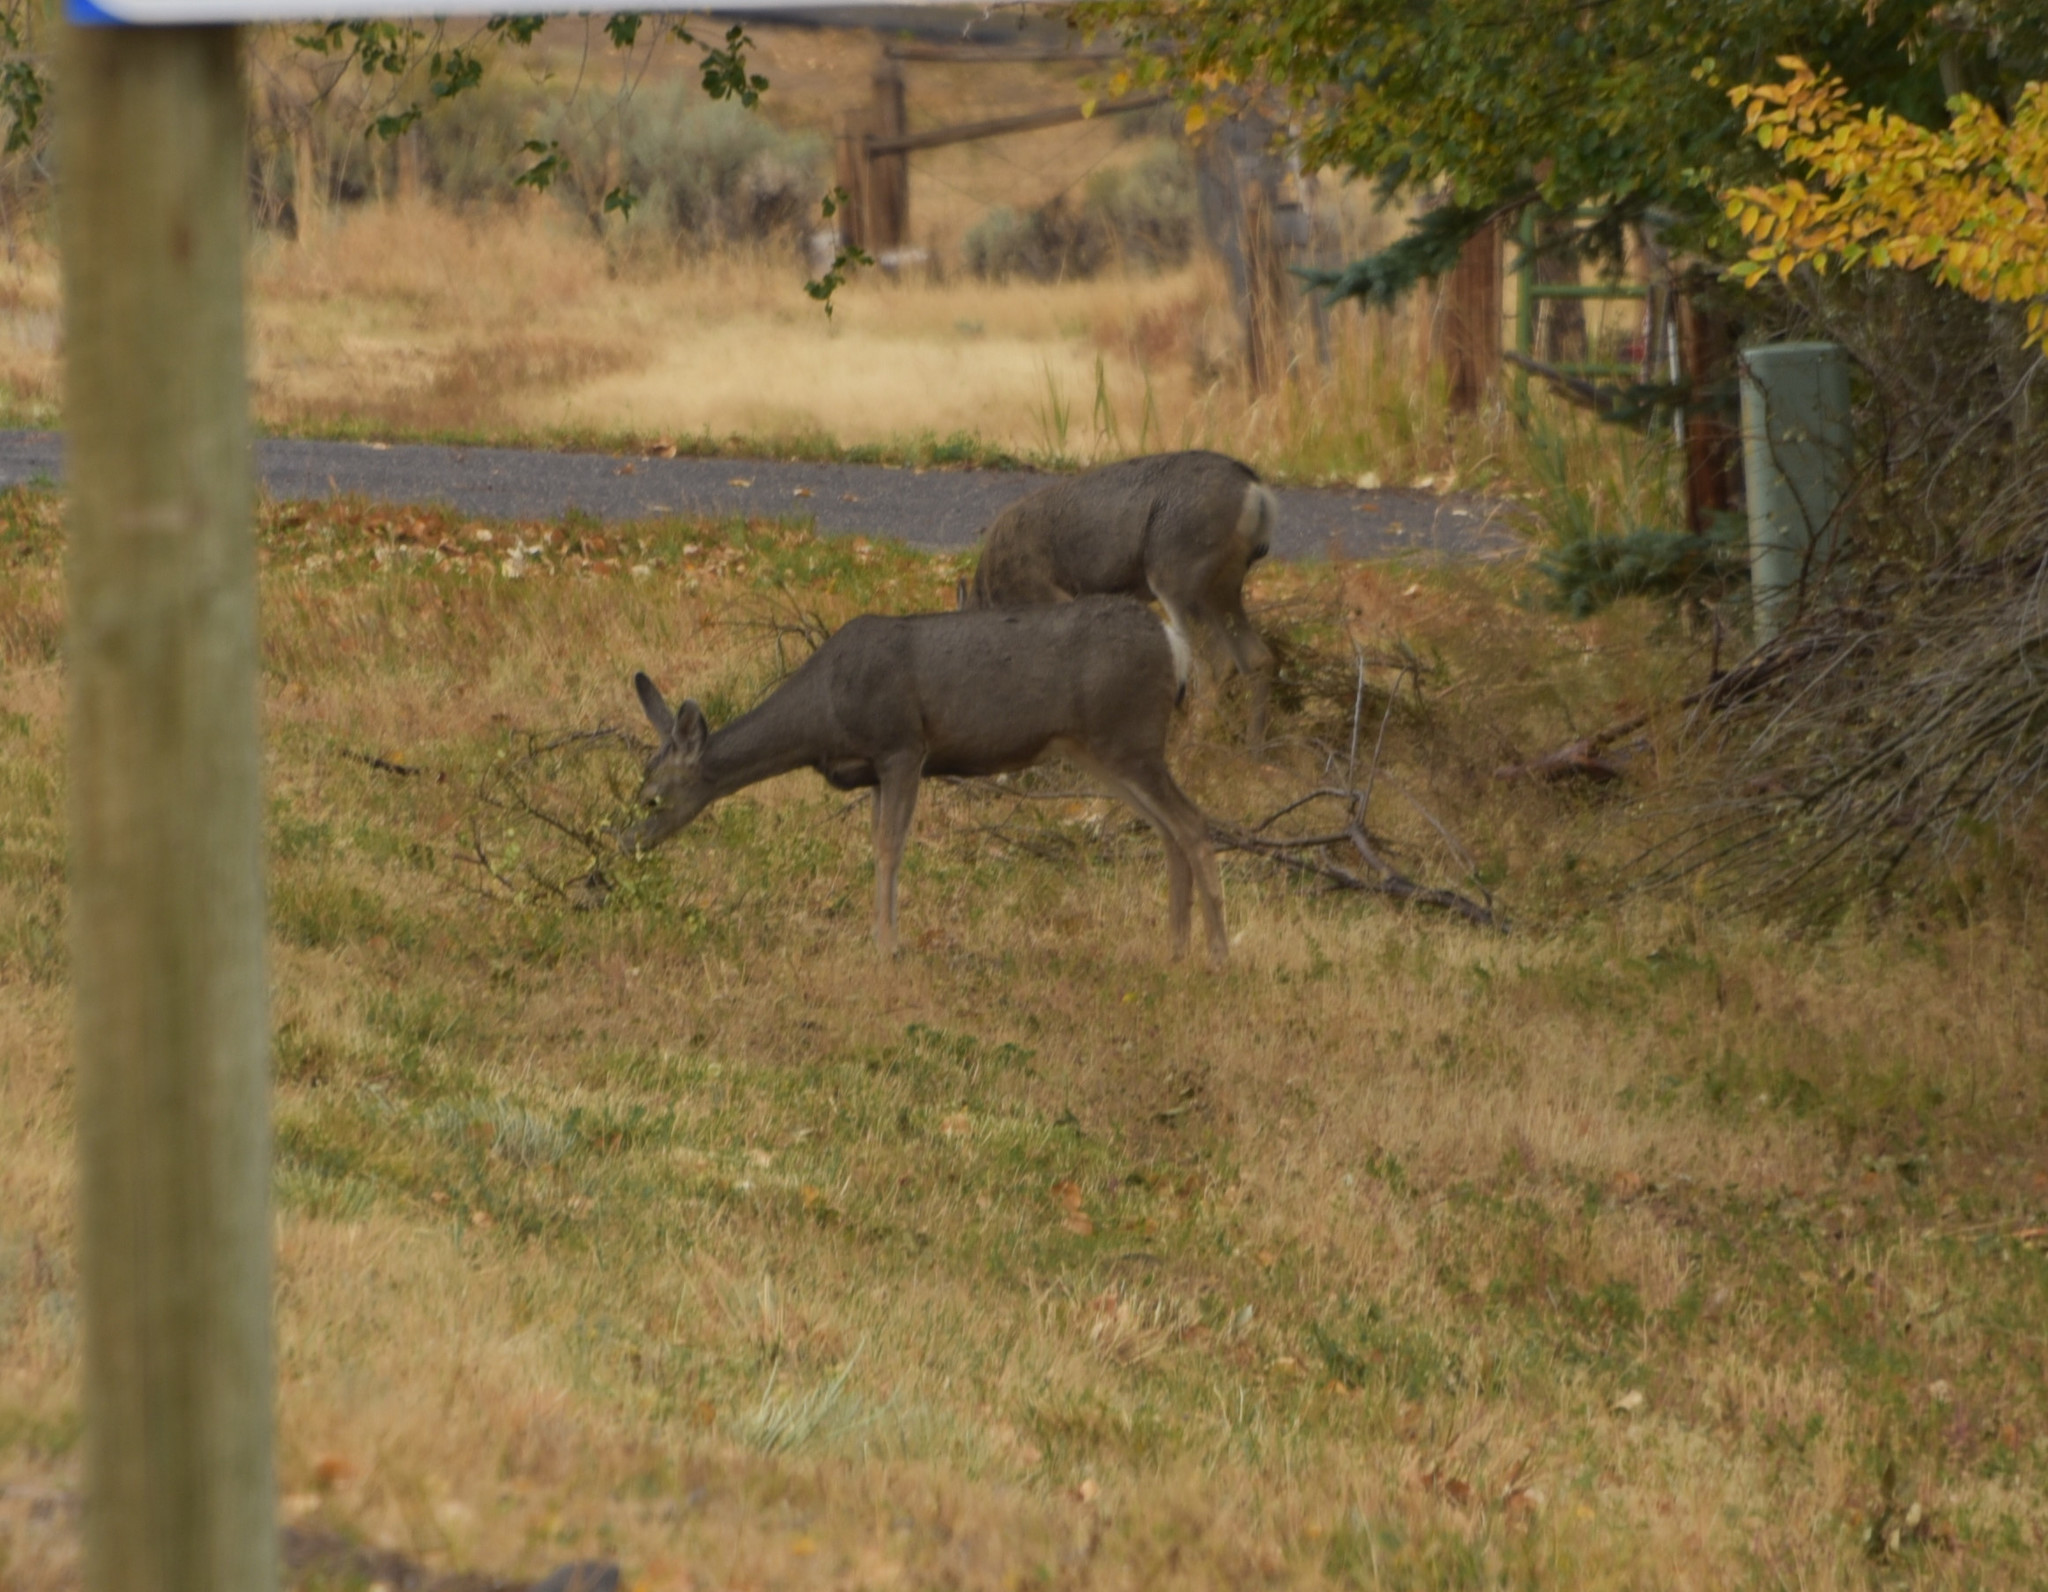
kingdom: Animalia
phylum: Chordata
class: Mammalia
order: Artiodactyla
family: Cervidae
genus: Odocoileus
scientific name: Odocoileus hemionus
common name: Mule deer
